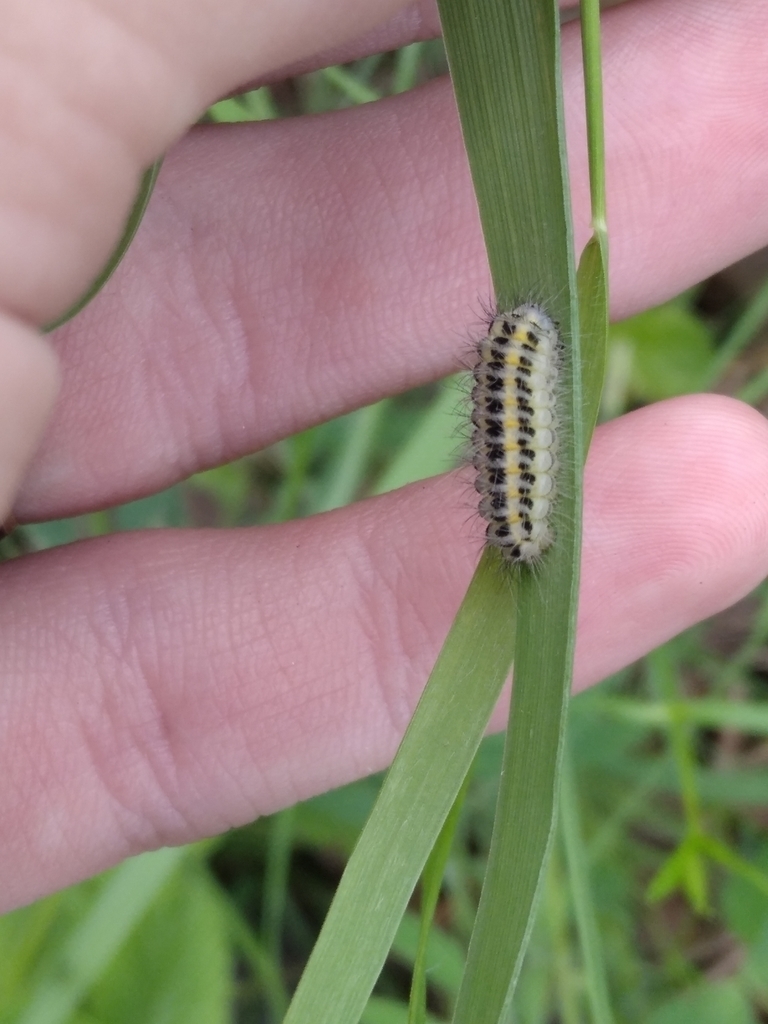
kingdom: Animalia
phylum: Arthropoda
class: Insecta
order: Lepidoptera
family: Zygaenidae
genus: Zygaena
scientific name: Zygaena lonicerae
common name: Narrow-bordered five-spot burnet
